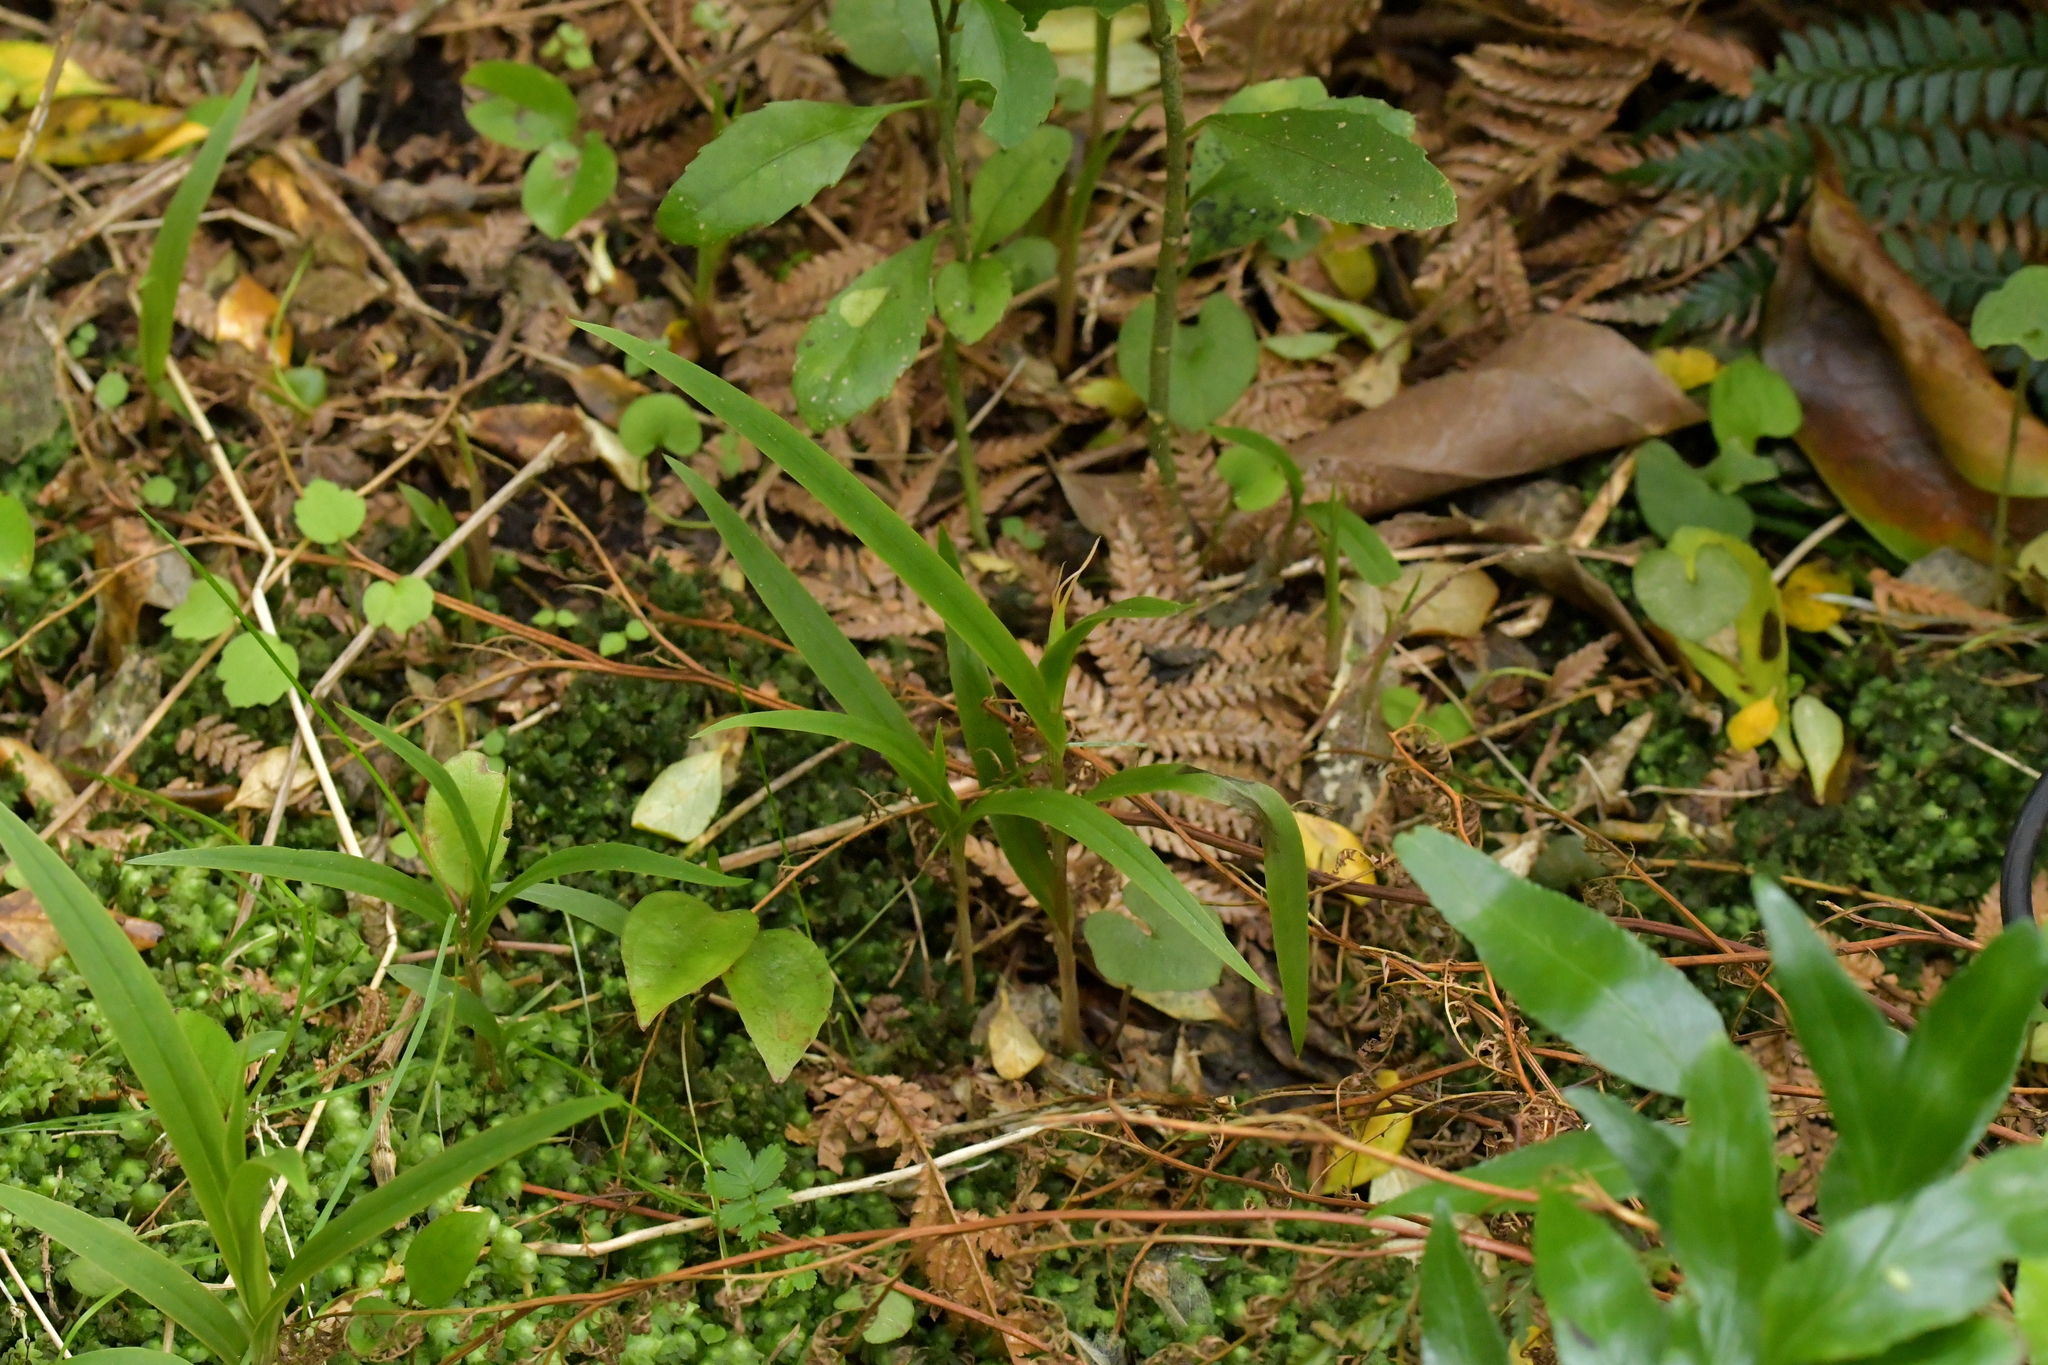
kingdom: Plantae
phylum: Tracheophyta
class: Liliopsida
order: Asparagales
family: Orchidaceae
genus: Pterostylis
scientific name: Pterostylis banksii
